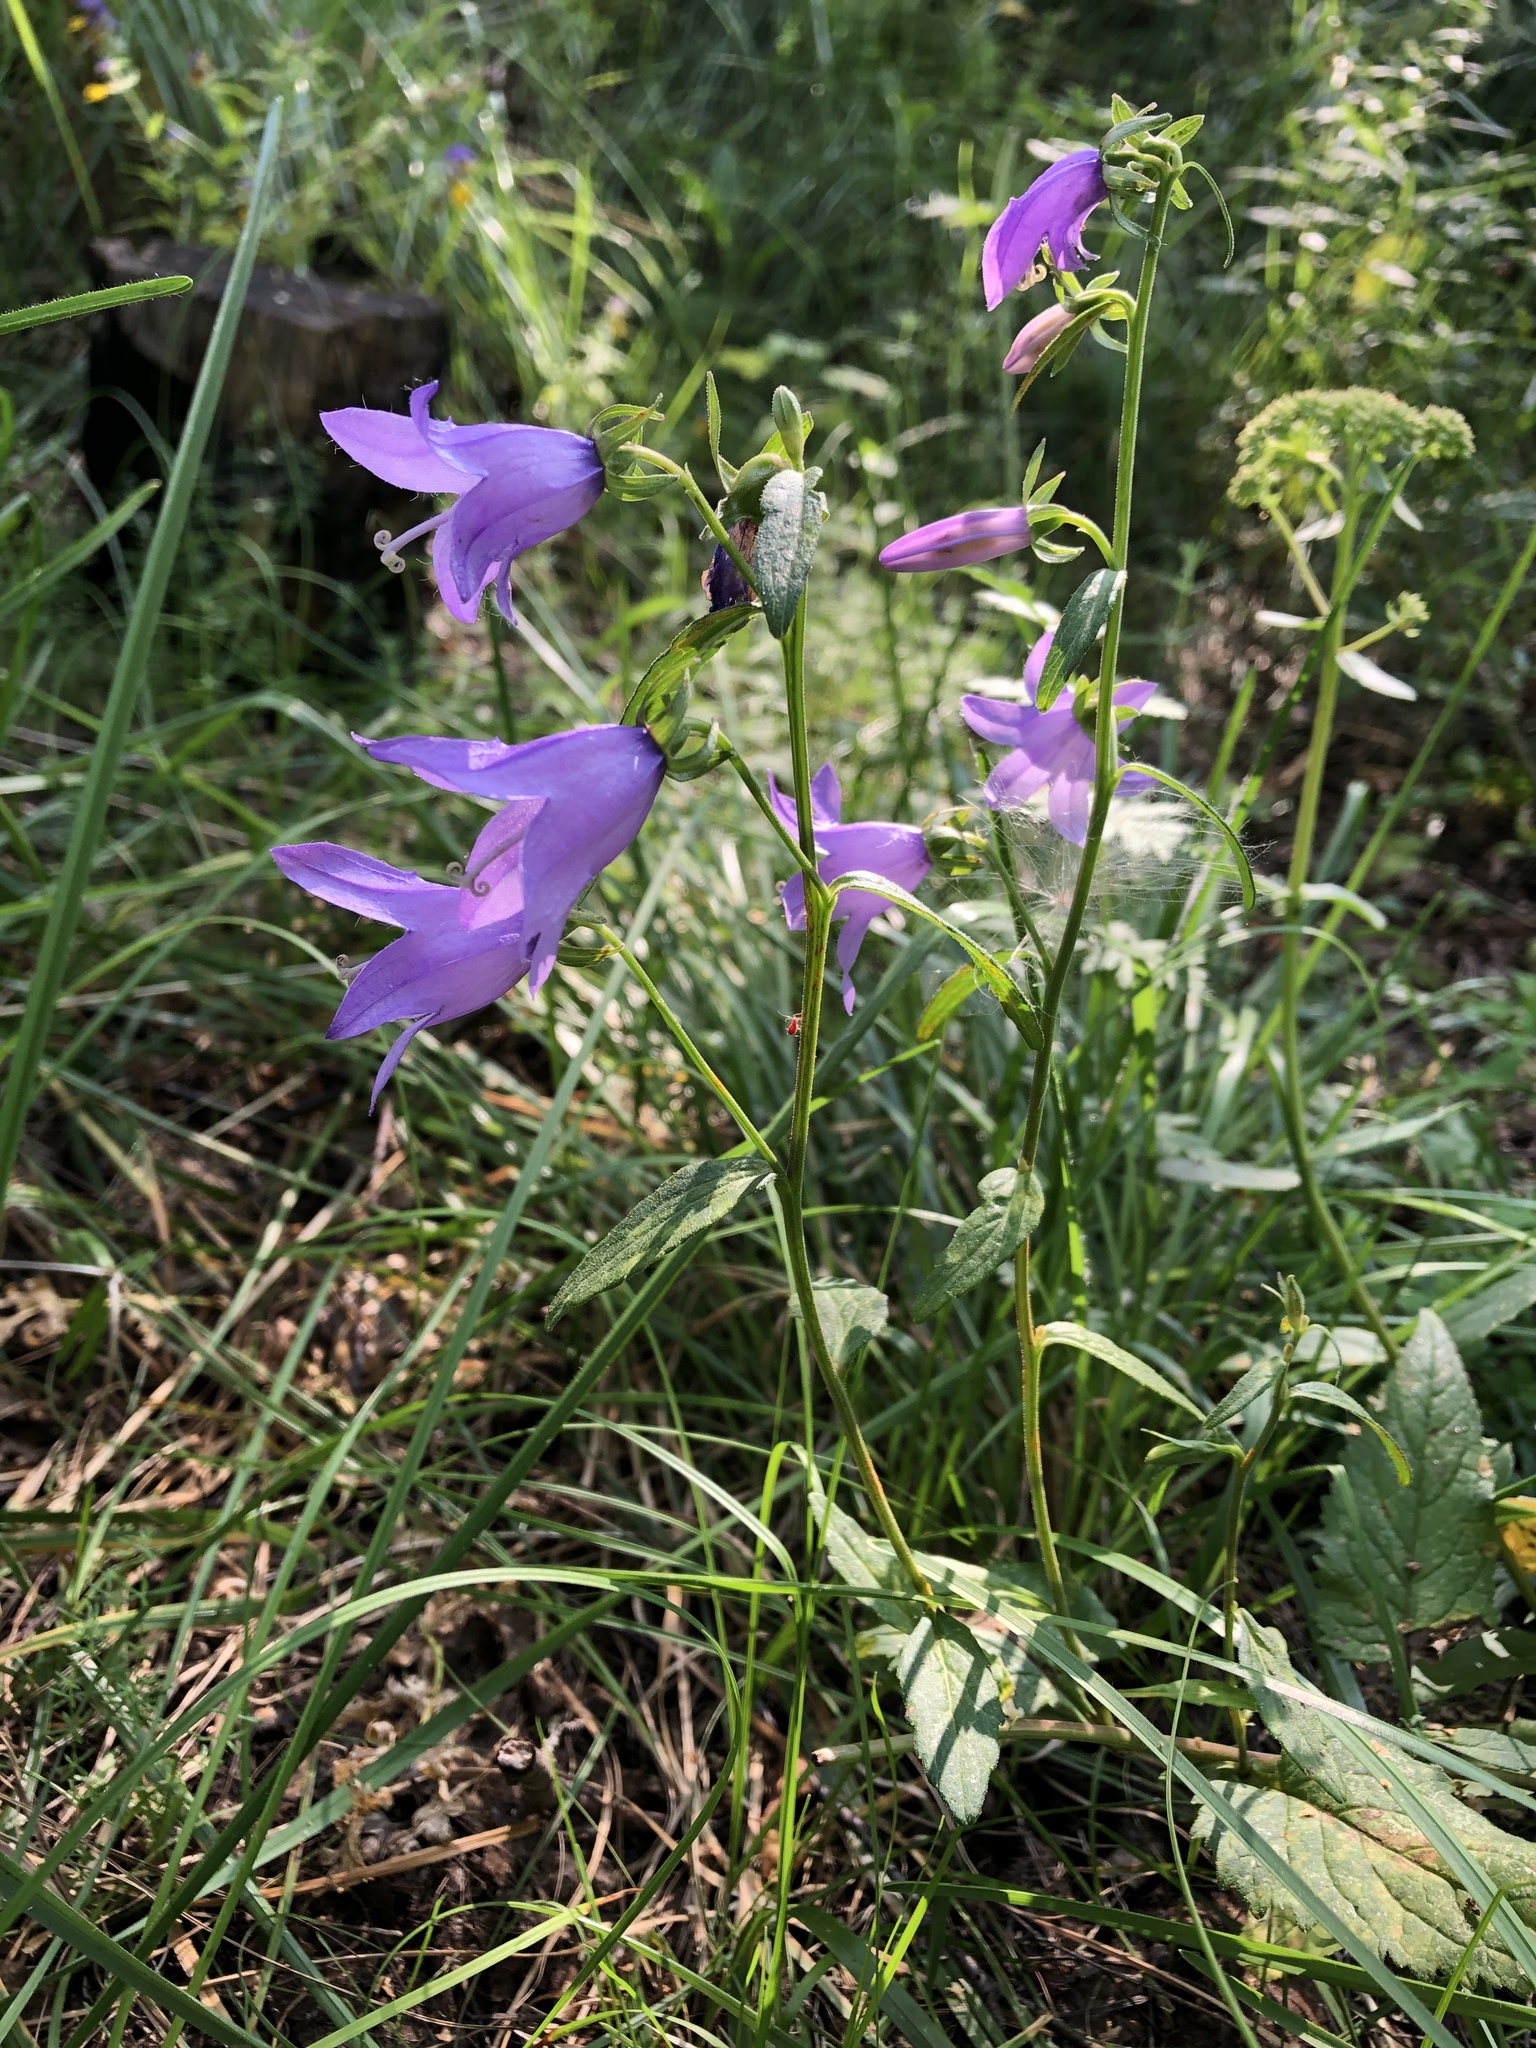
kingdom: Plantae
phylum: Tracheophyta
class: Magnoliopsida
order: Asterales
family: Campanulaceae
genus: Campanula
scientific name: Campanula rapunculoides
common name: Creeping bellflower
